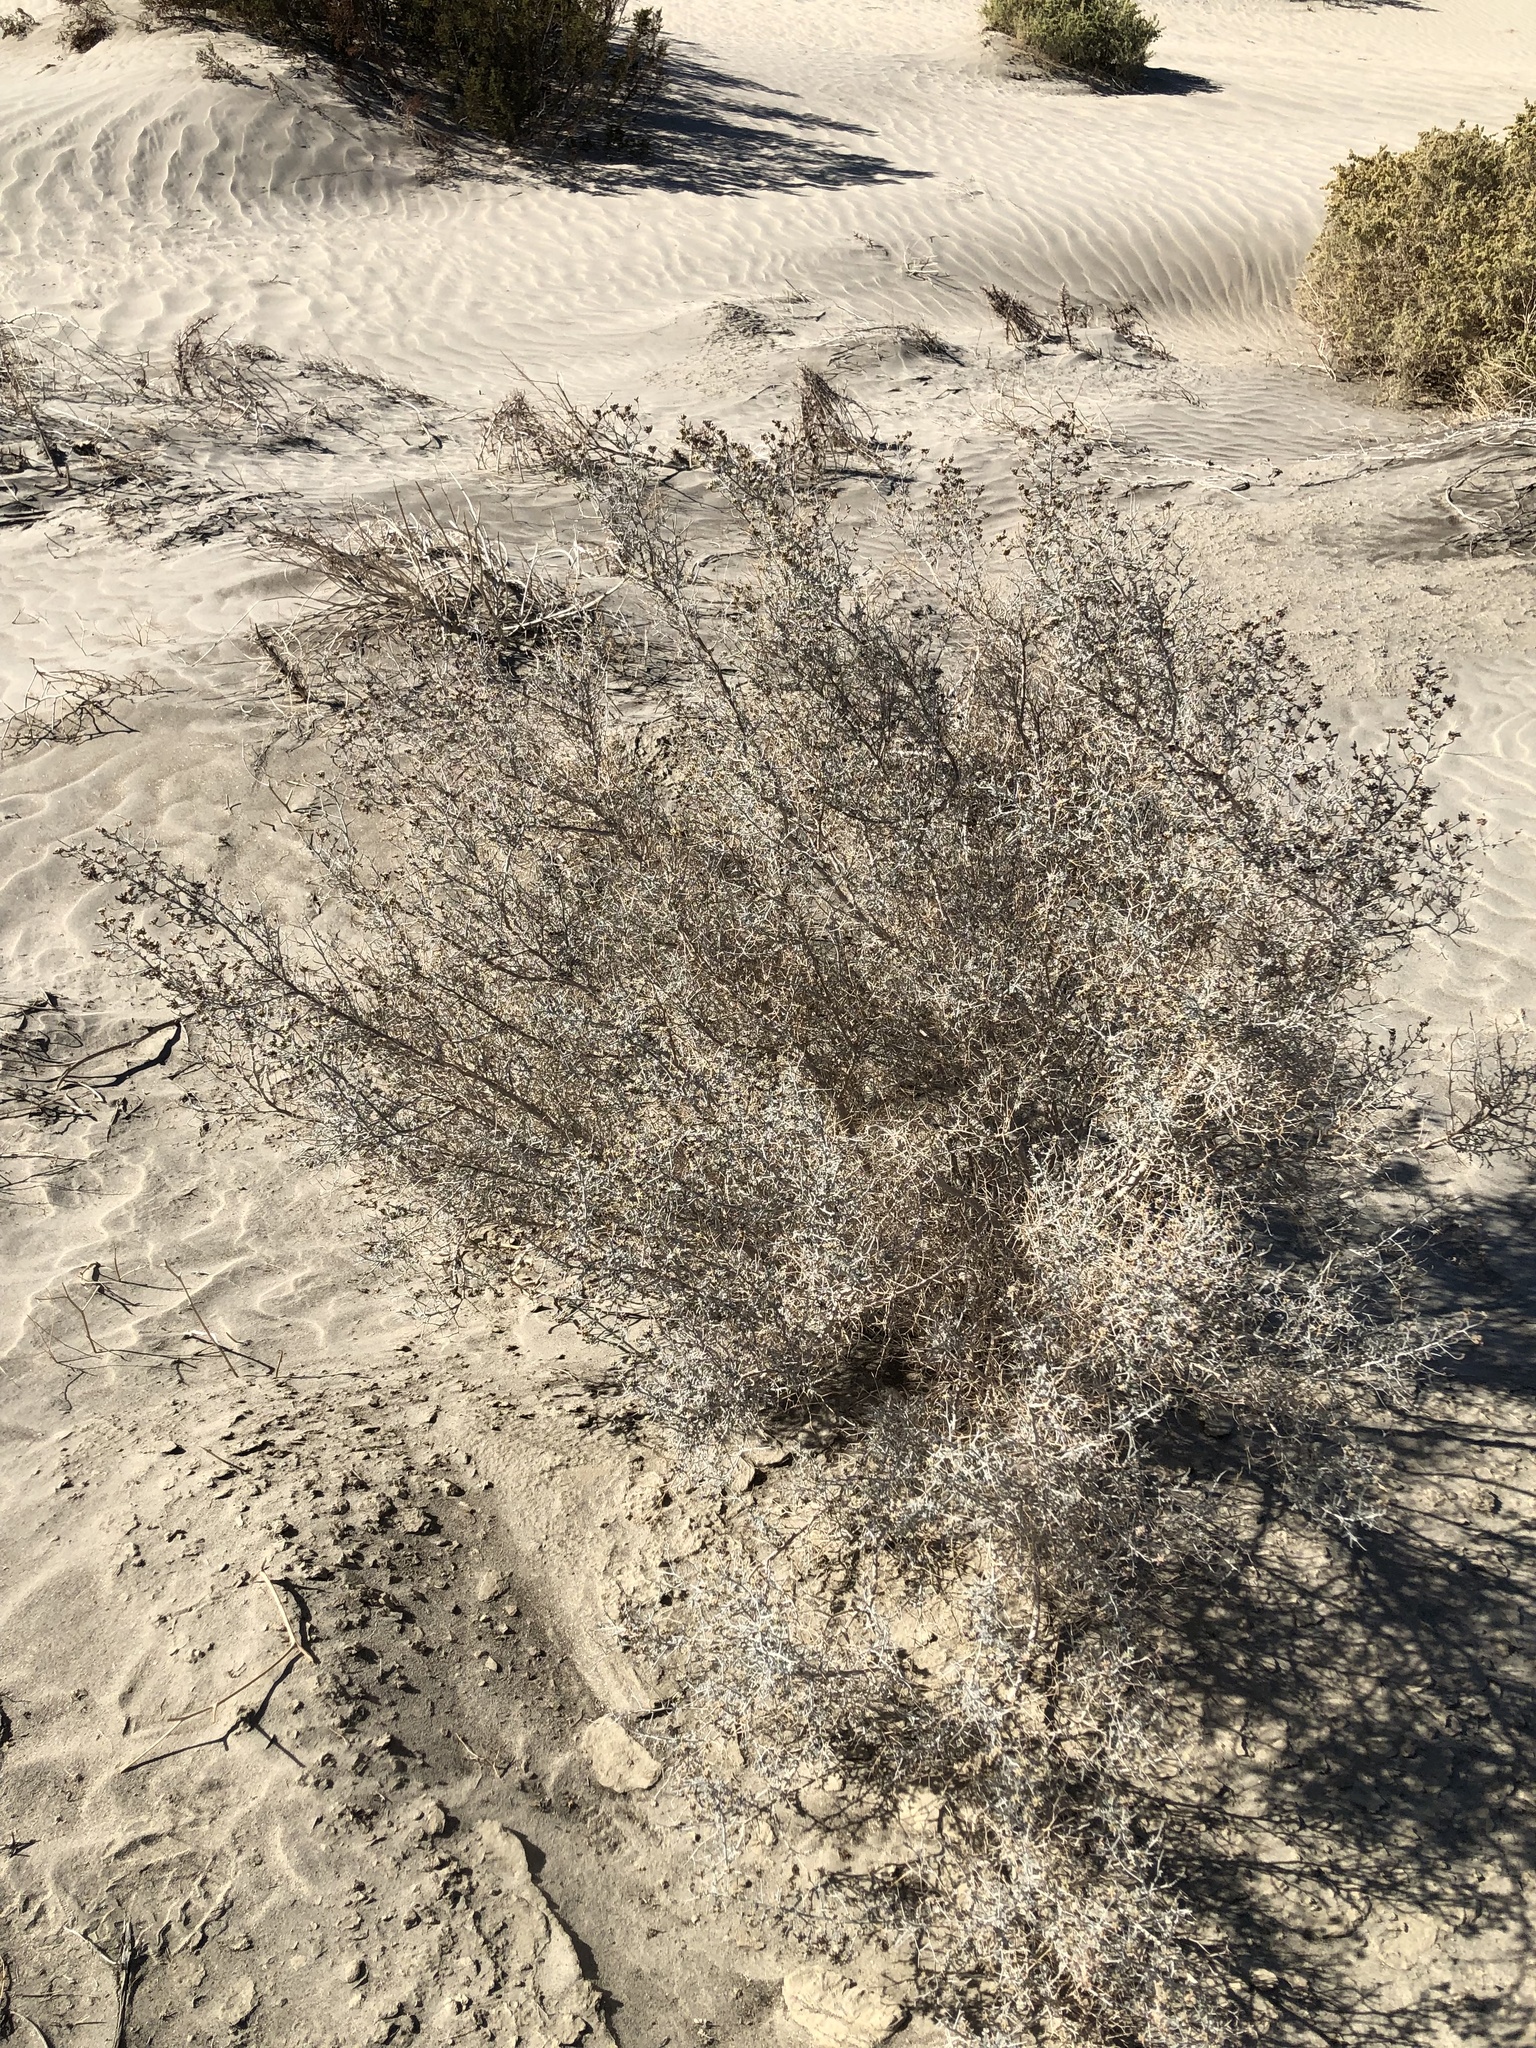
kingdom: Plantae
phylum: Tracheophyta
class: Magnoliopsida
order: Fabales
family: Fabaceae
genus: Psorothamnus
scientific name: Psorothamnus emoryi
